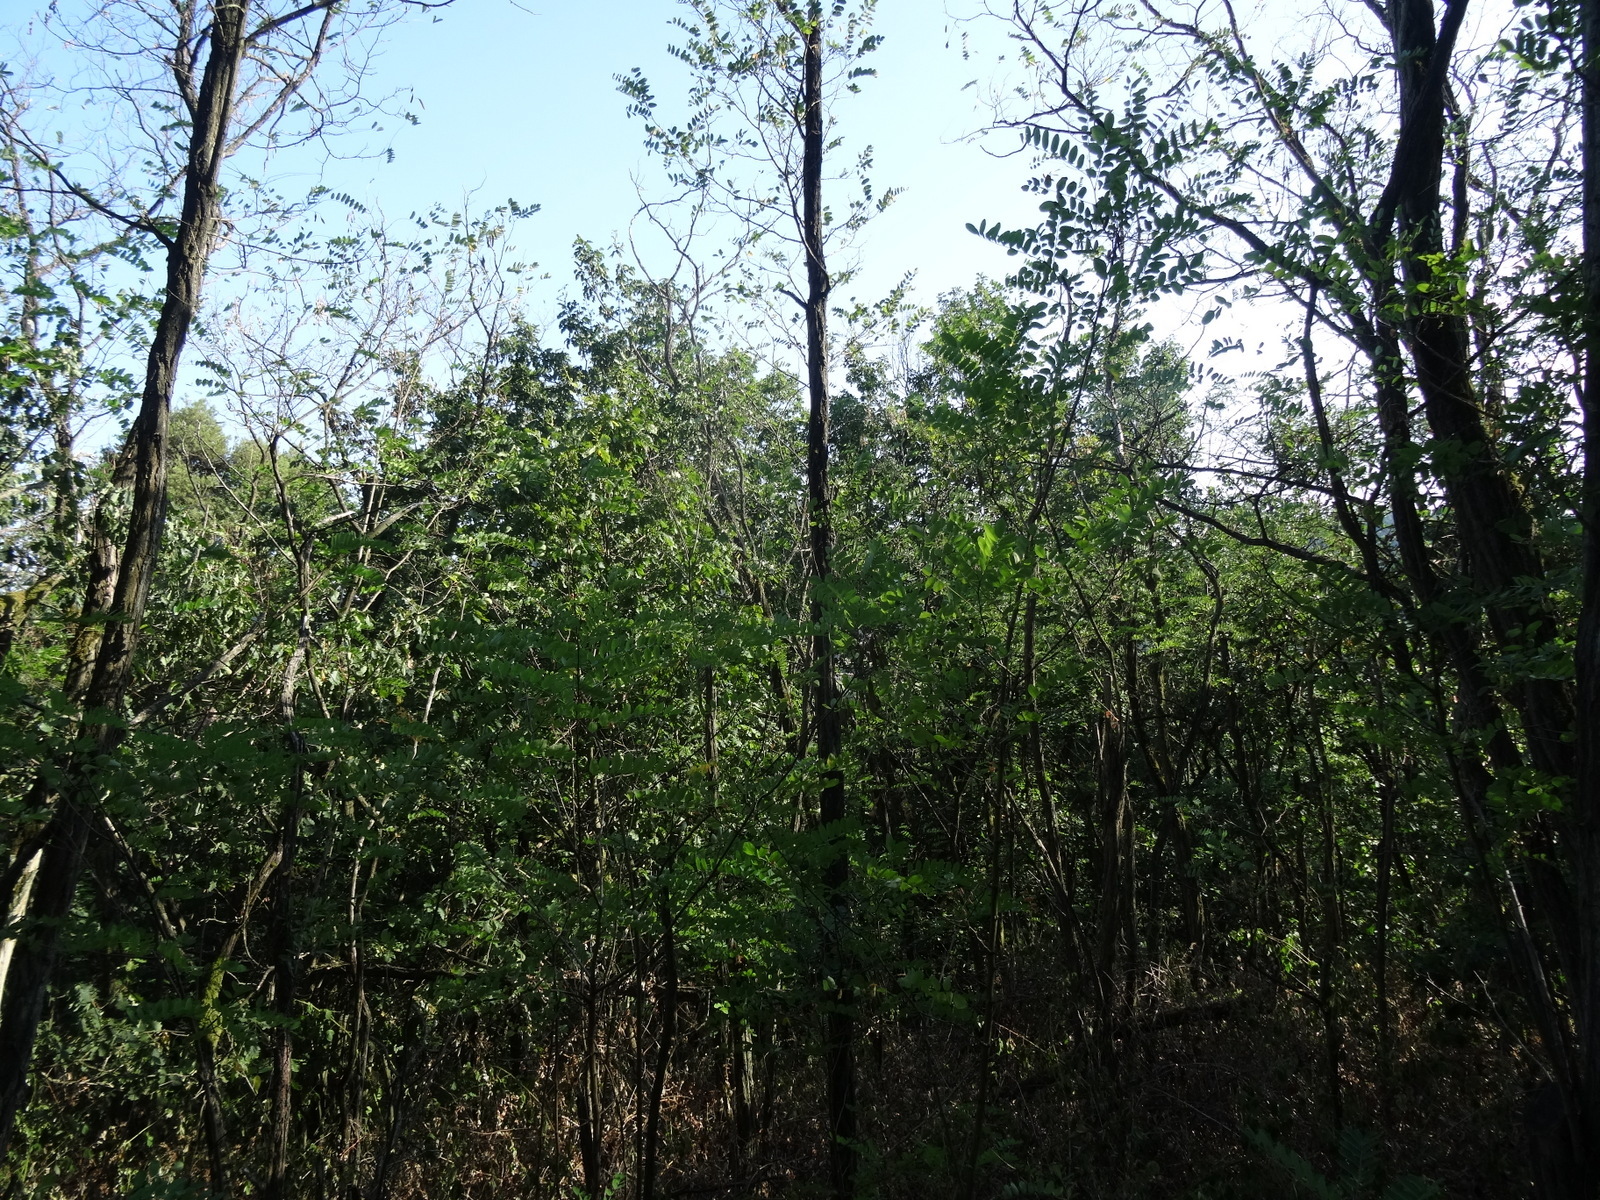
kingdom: Plantae
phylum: Tracheophyta
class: Magnoliopsida
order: Fabales
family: Fabaceae
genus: Robinia
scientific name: Robinia pseudoacacia
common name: Black locust
